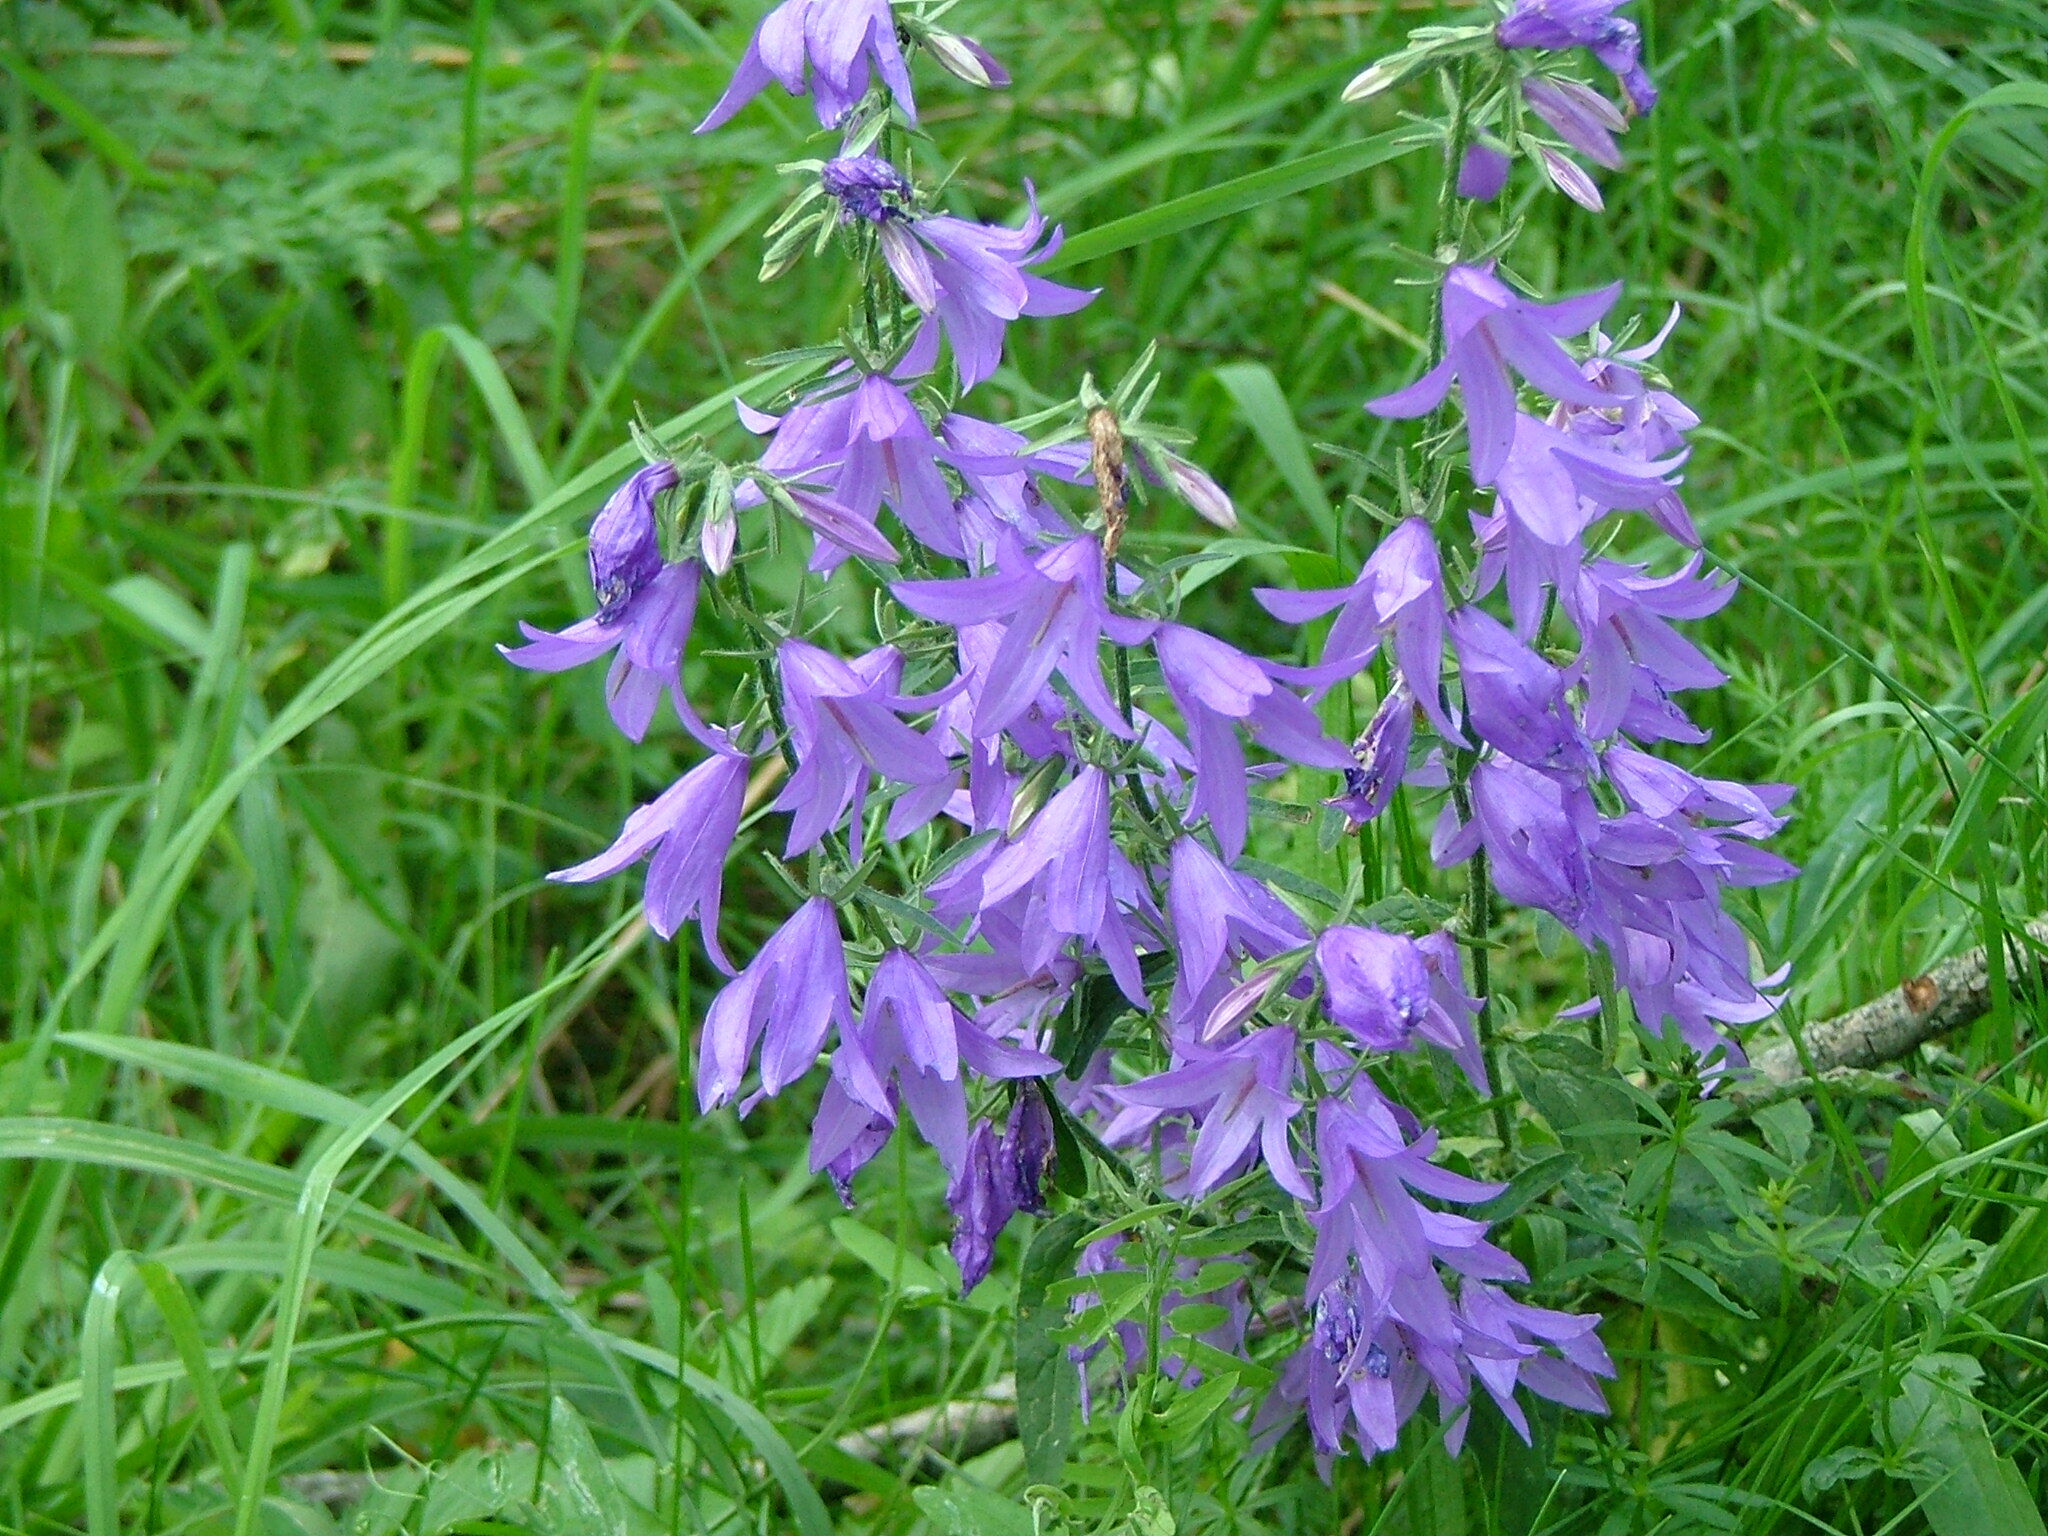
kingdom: Plantae
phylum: Tracheophyta
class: Magnoliopsida
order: Asterales
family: Campanulaceae
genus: Campanula
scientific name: Campanula rapunculoides
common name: Creeping bellflower
